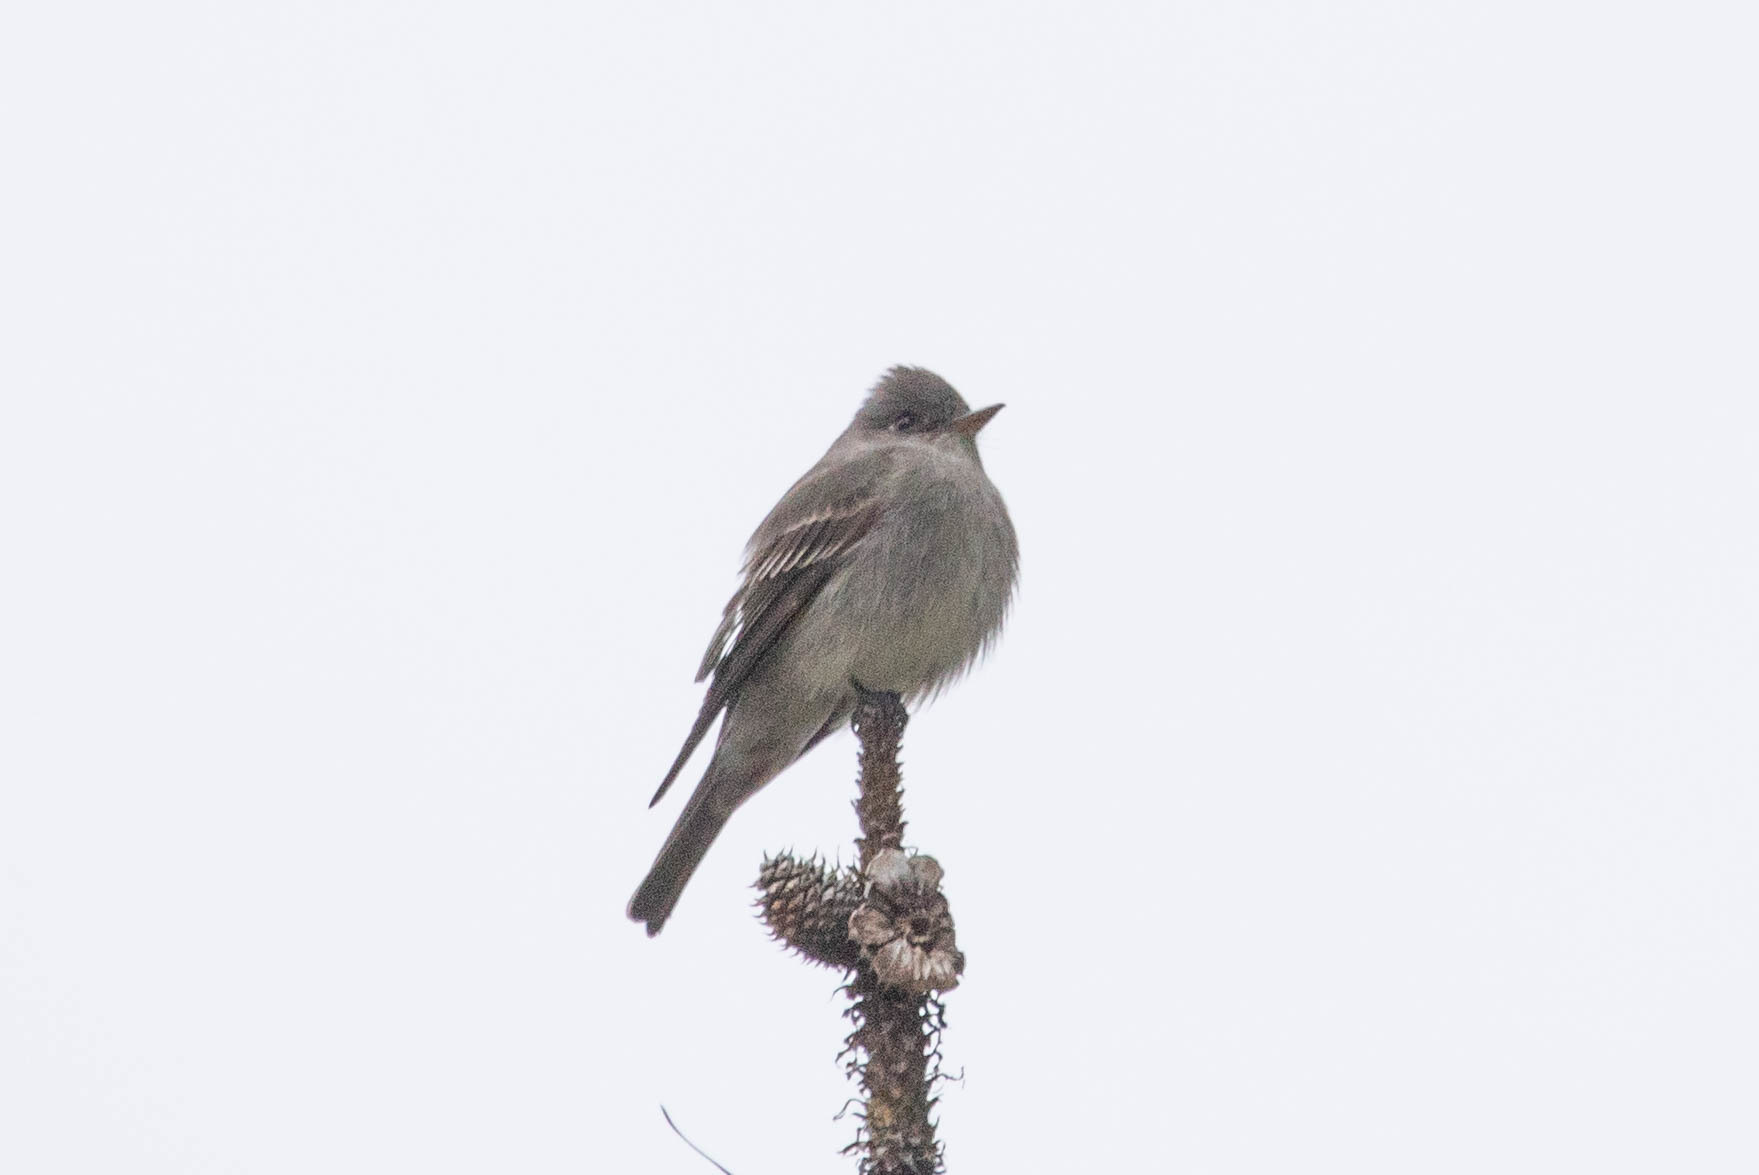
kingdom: Animalia
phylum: Chordata
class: Aves
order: Passeriformes
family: Tyrannidae
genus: Contopus
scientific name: Contopus sordidulus
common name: Western wood-pewee
